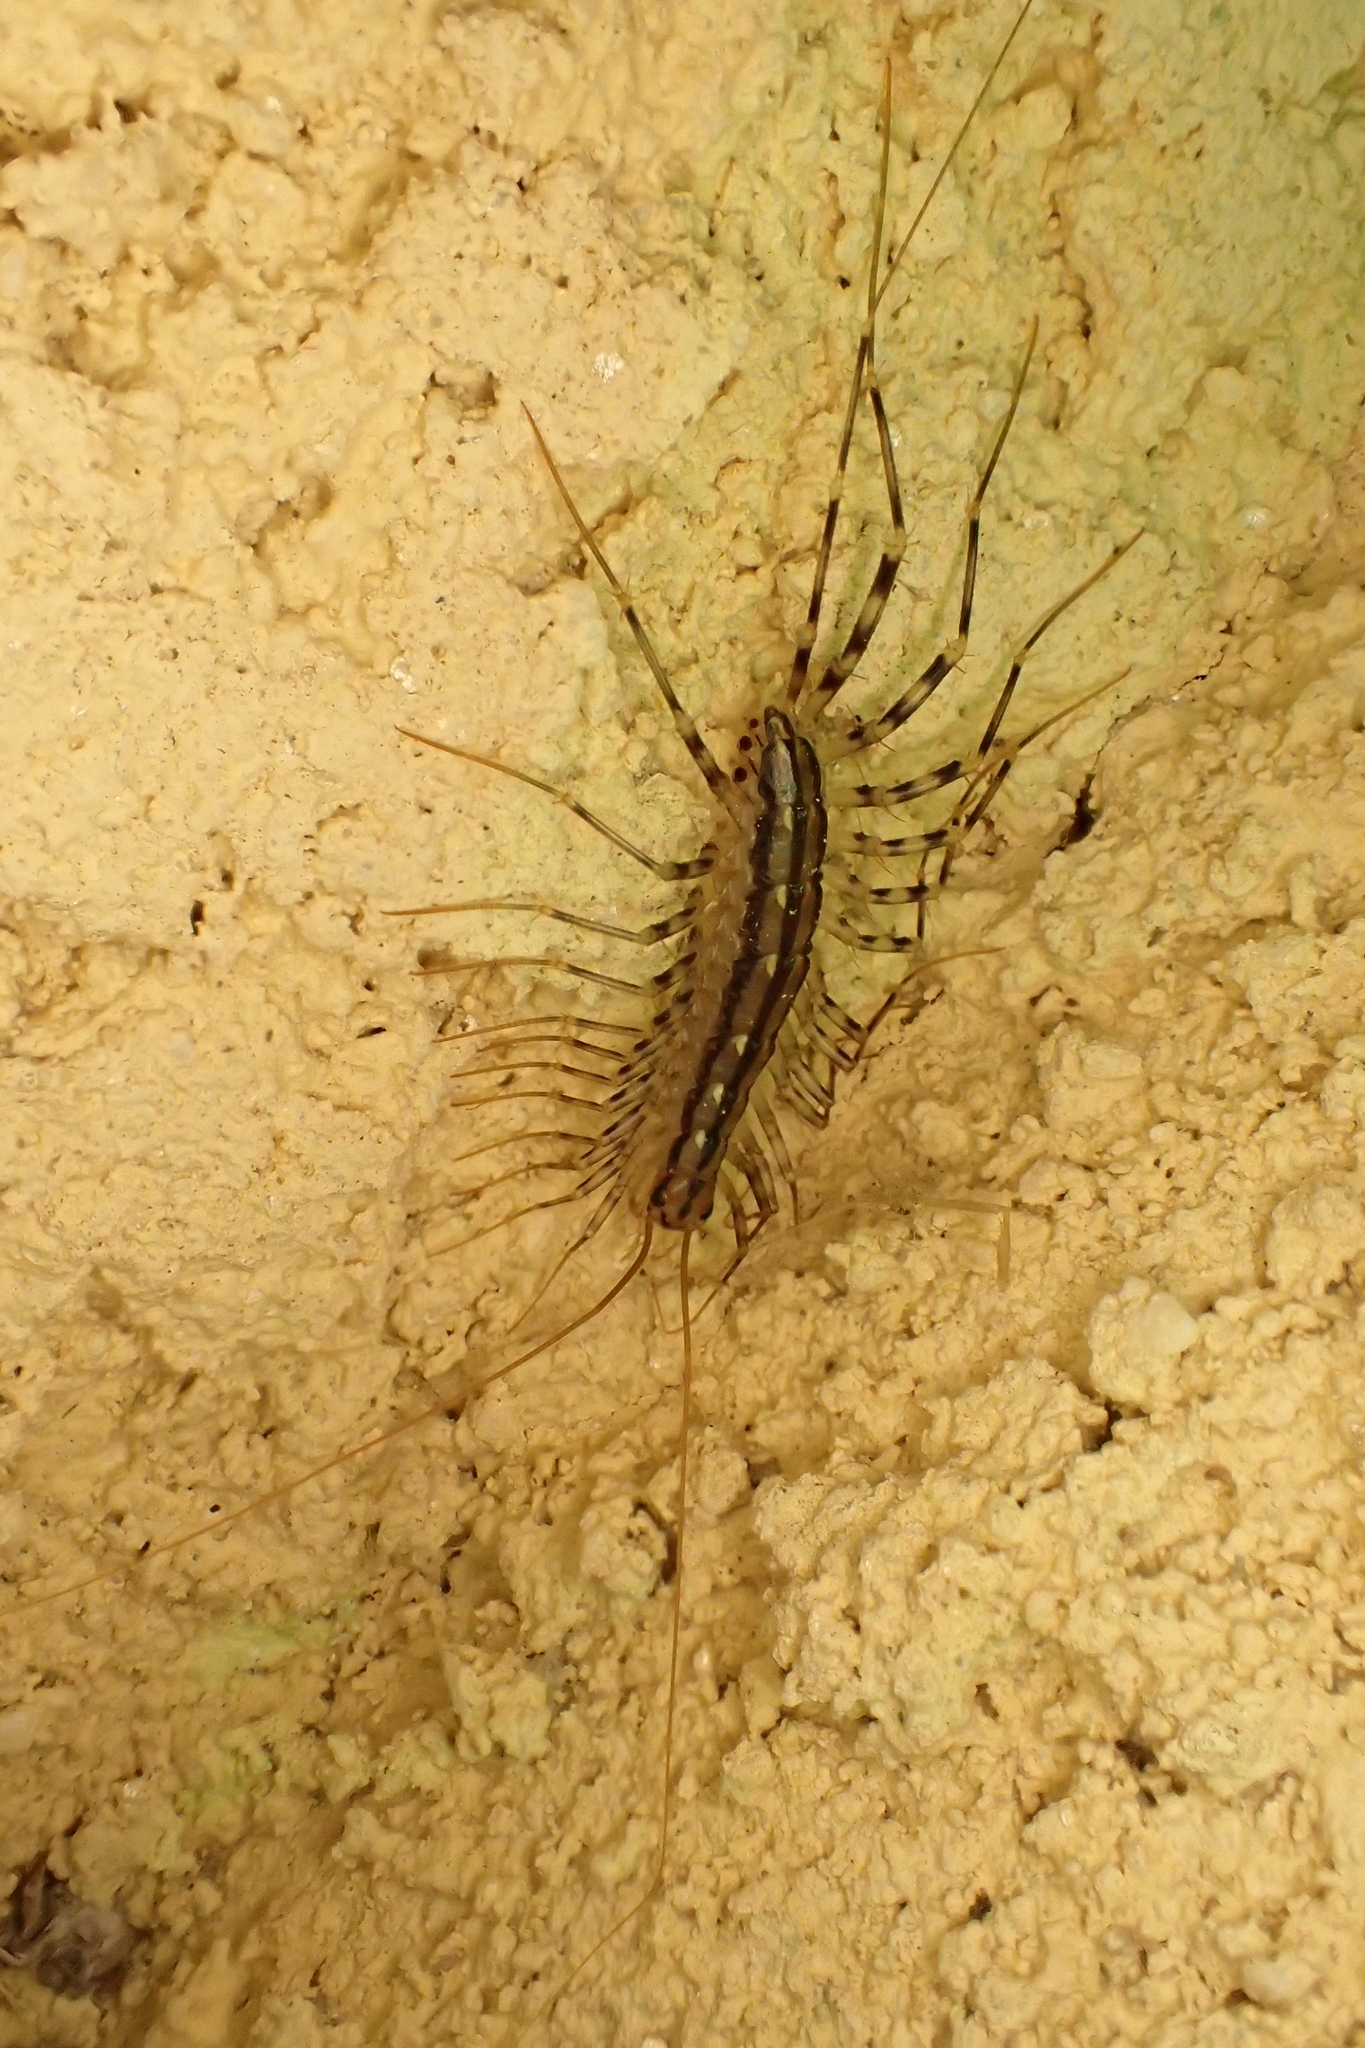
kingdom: Animalia
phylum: Arthropoda
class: Chilopoda
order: Scutigeromorpha
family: Scutigeridae
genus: Scutigera
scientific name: Scutigera coleoptrata
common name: House centipede
